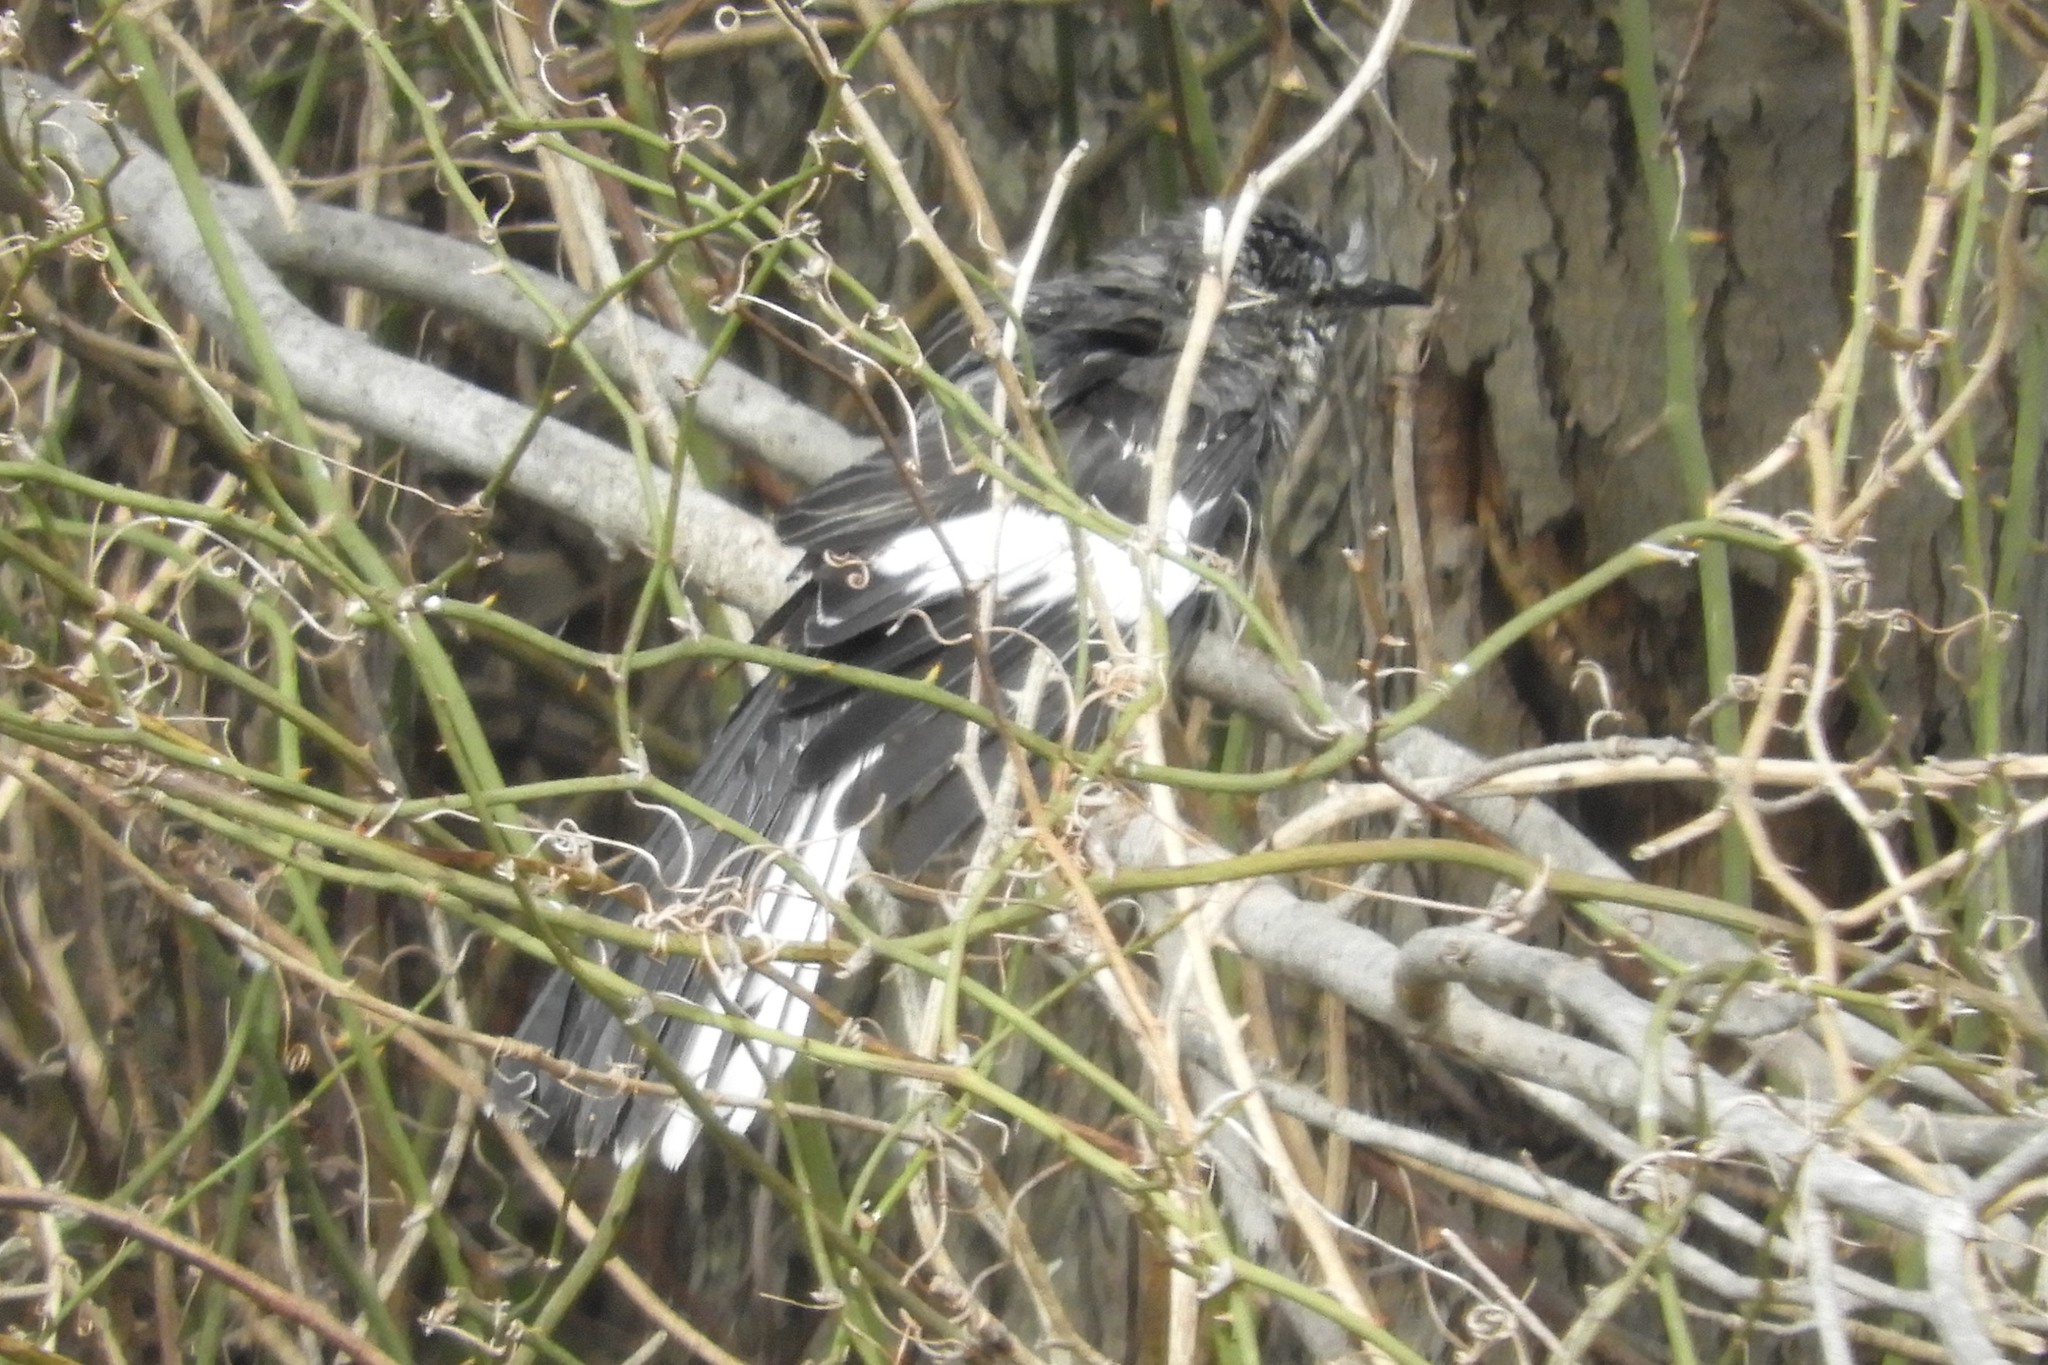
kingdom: Animalia
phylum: Chordata
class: Aves
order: Passeriformes
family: Mimidae
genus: Mimus
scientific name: Mimus polyglottos
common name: Northern mockingbird
